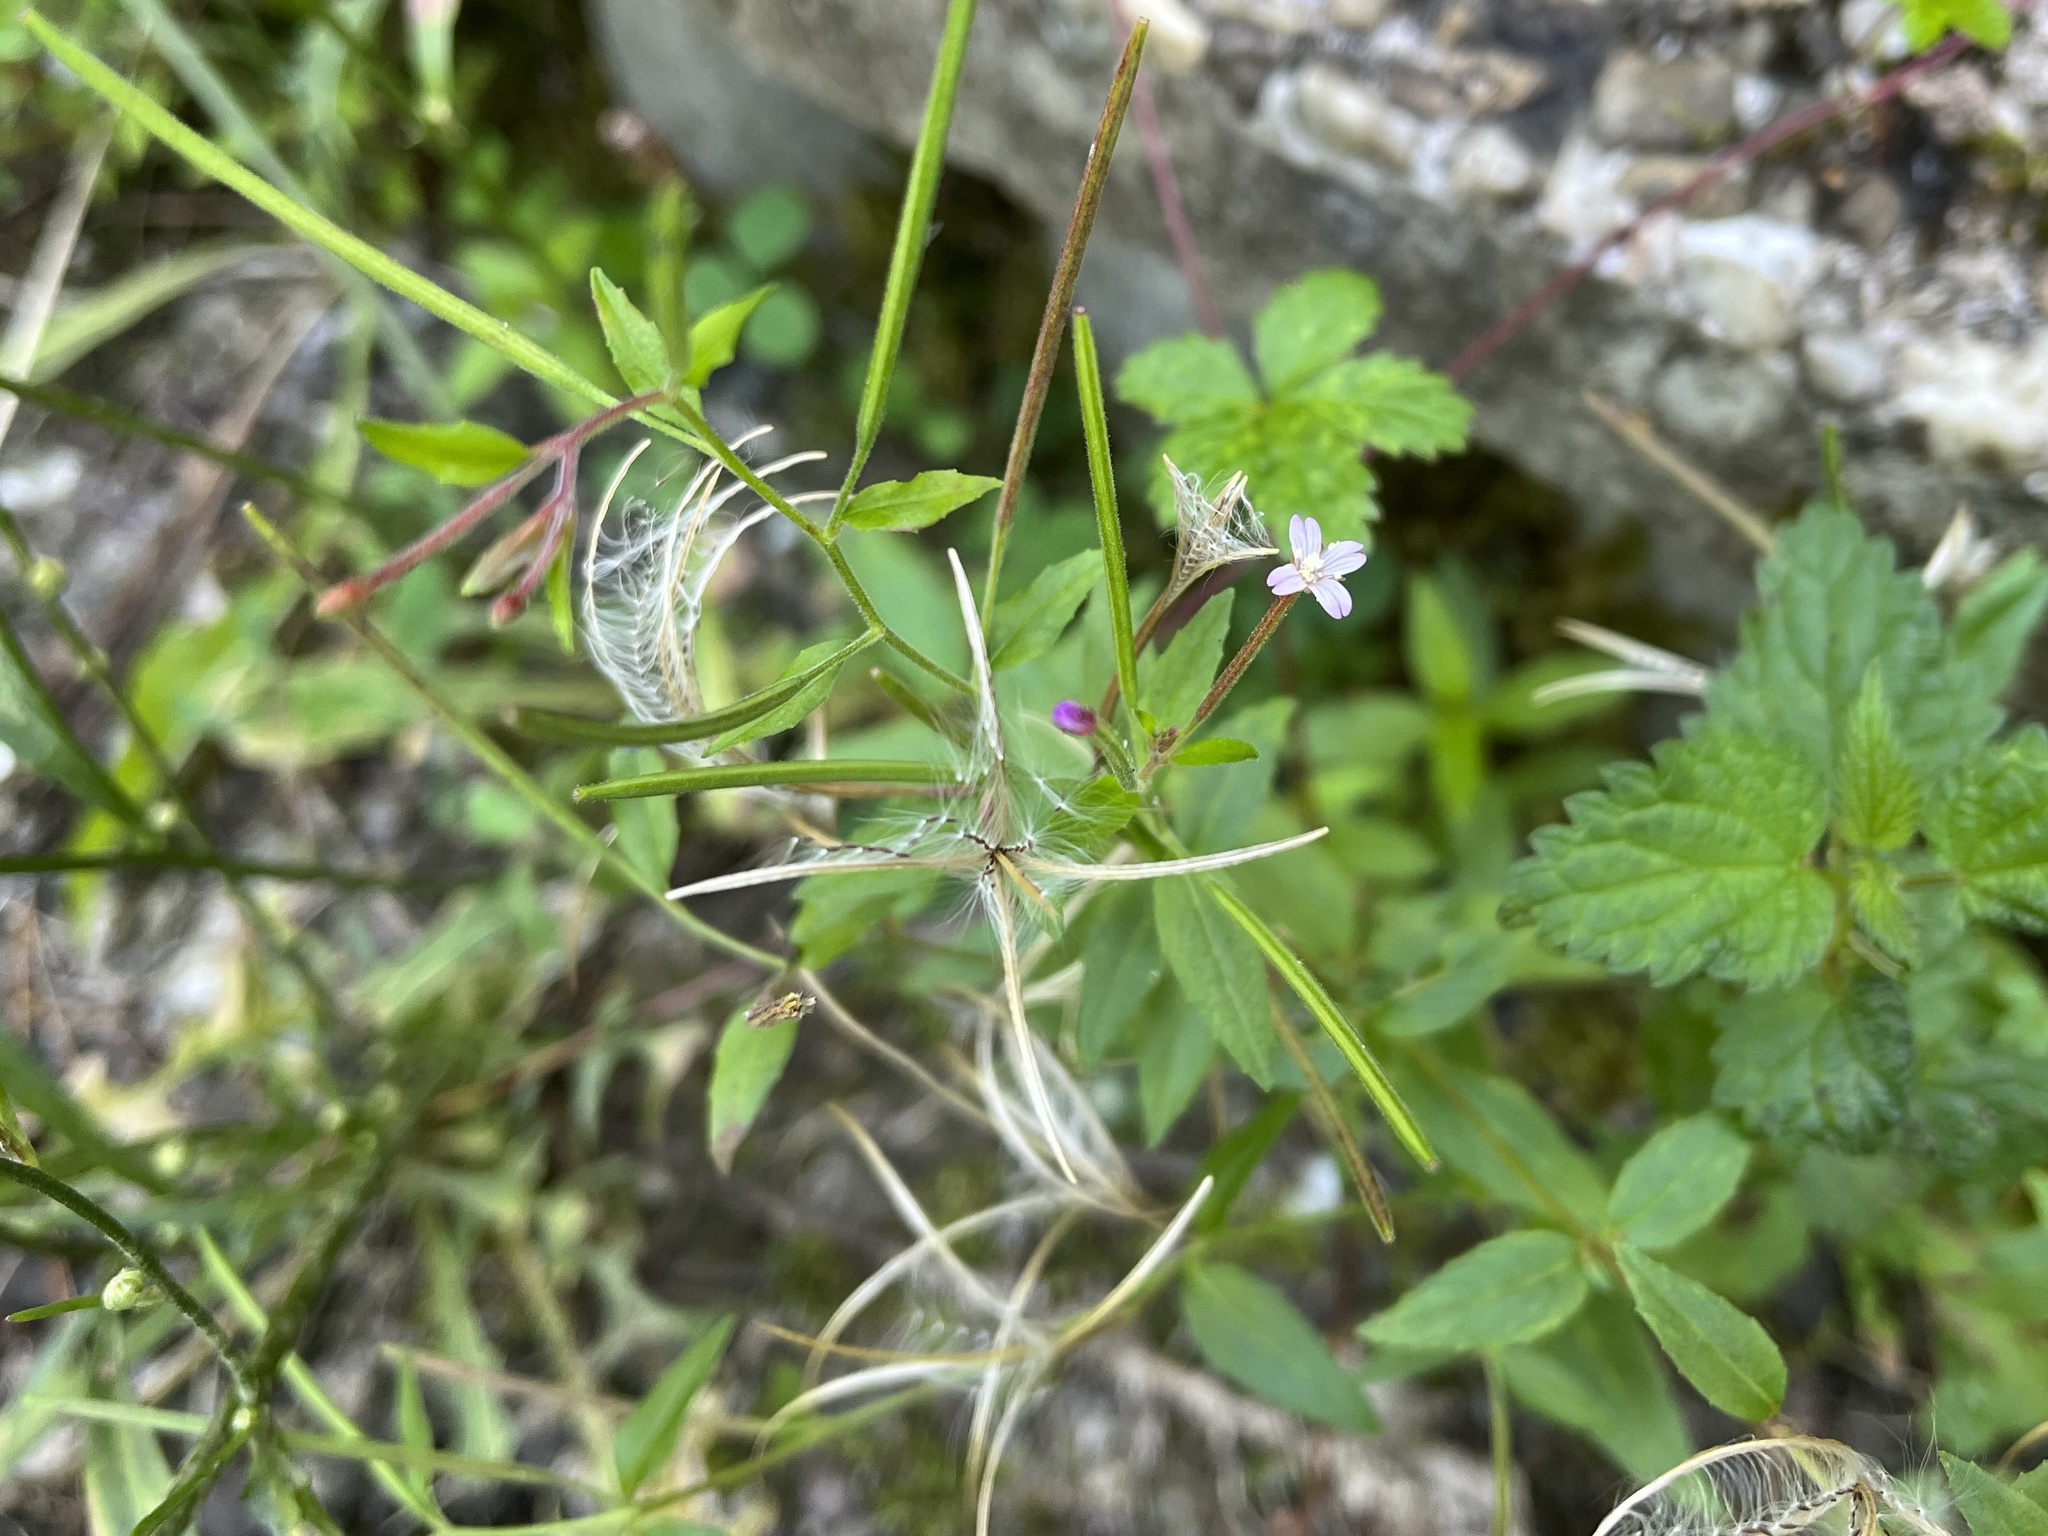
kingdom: Plantae
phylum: Tracheophyta
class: Magnoliopsida
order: Myrtales
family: Onagraceae
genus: Epilobium
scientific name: Epilobium ciliatum
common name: American willowherb
